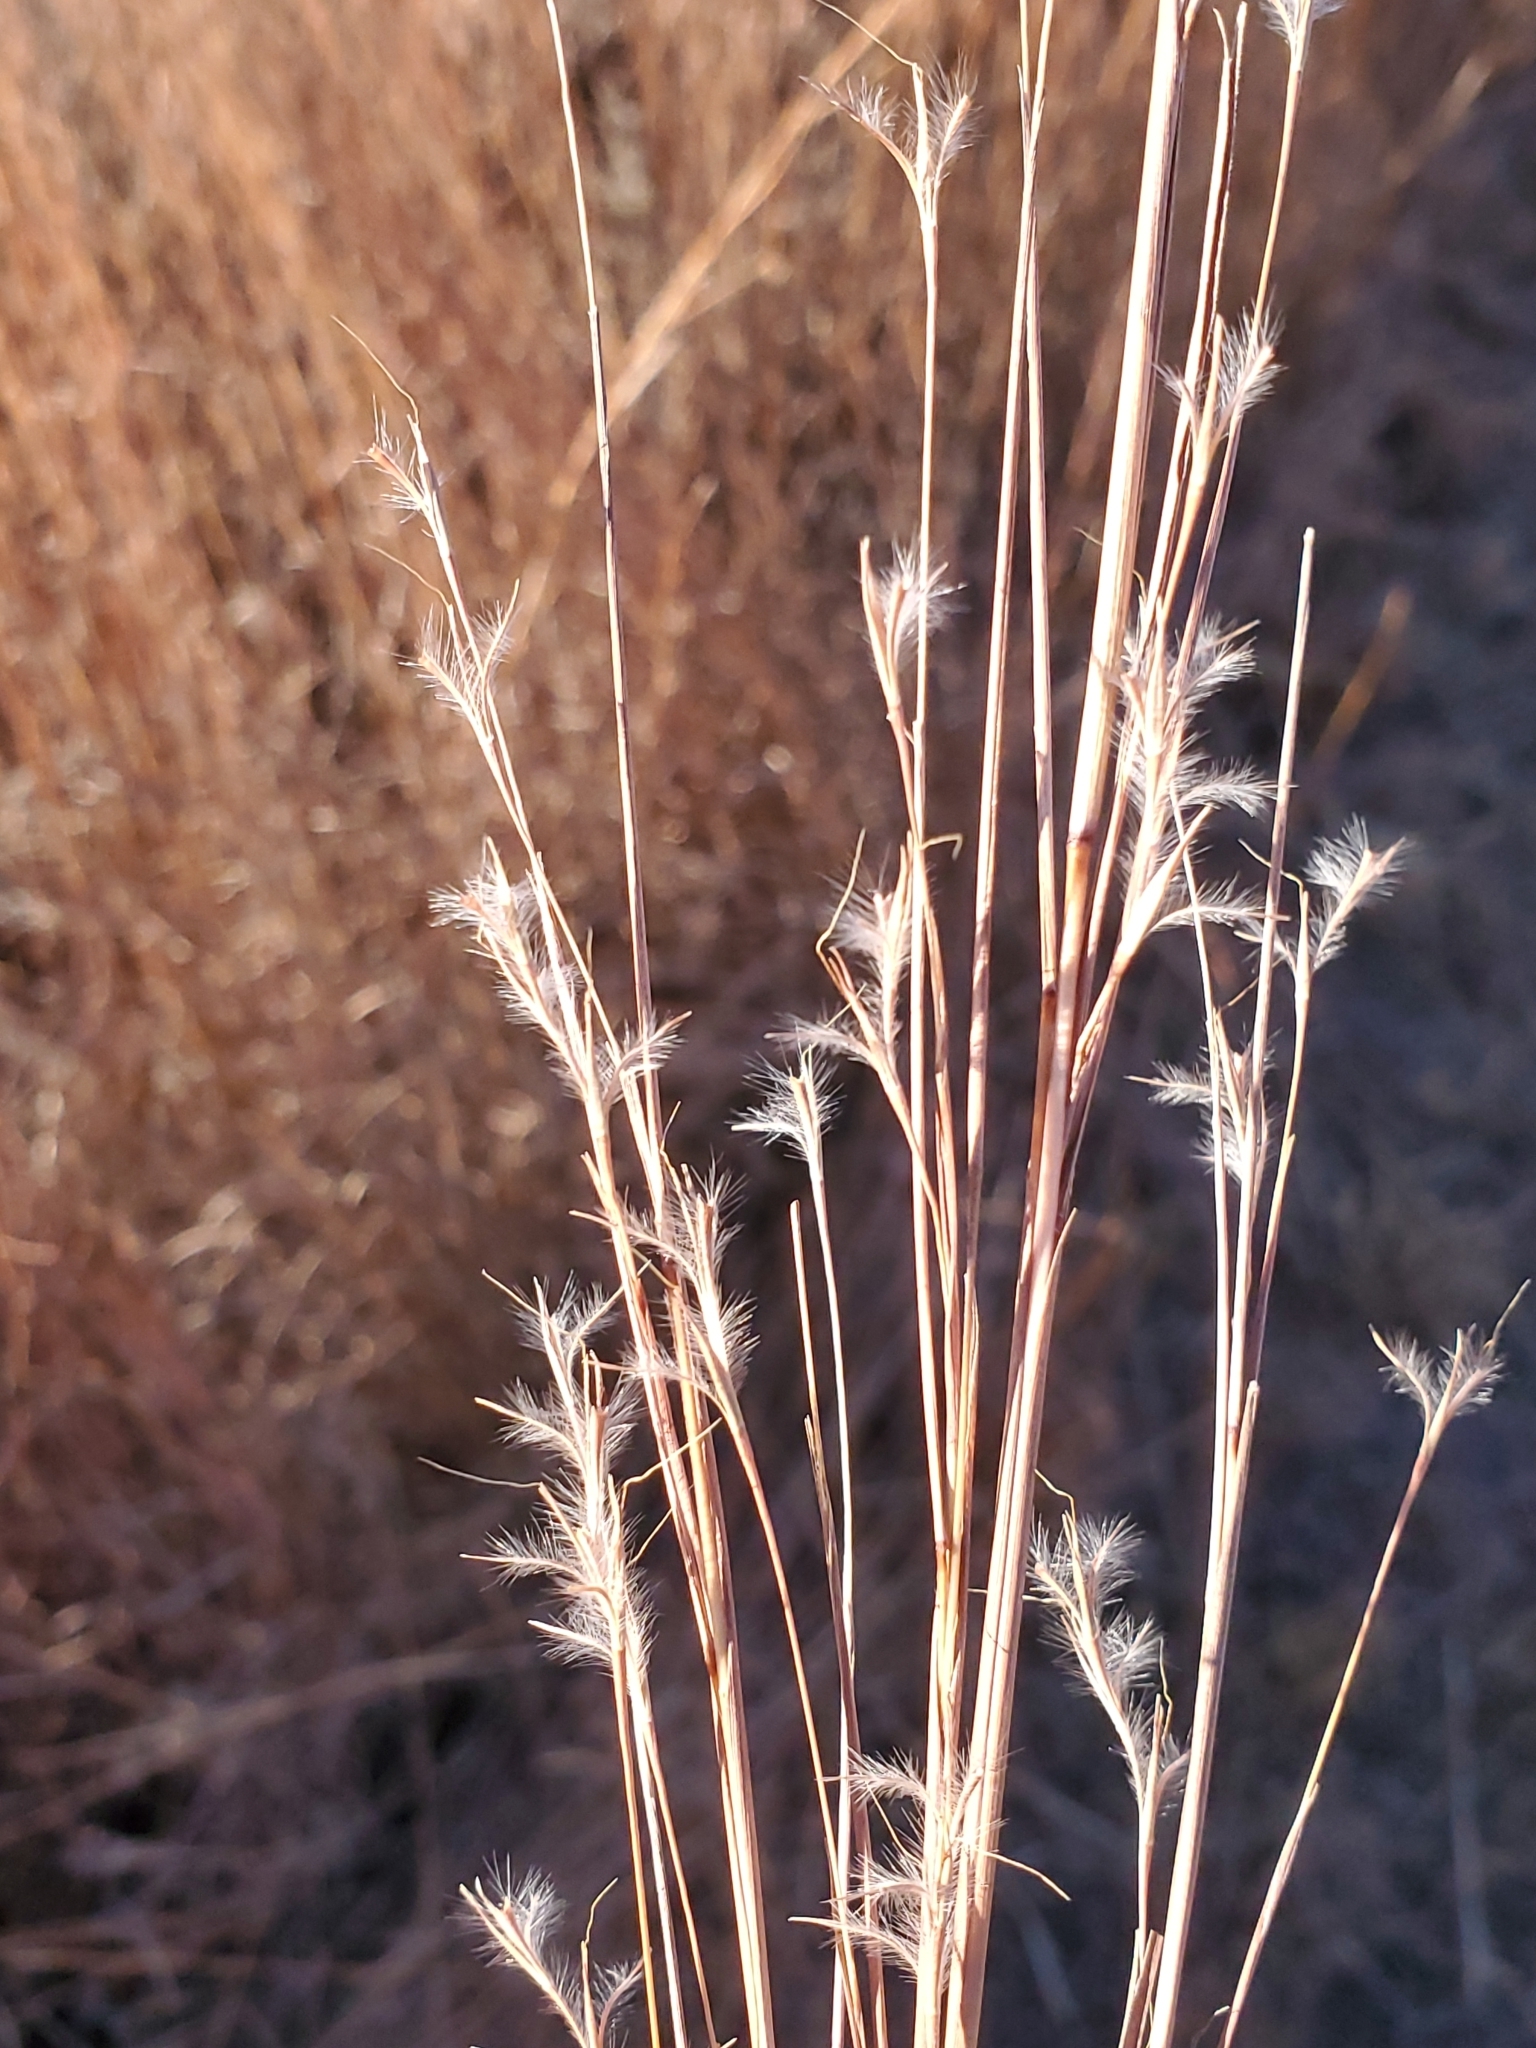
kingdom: Plantae
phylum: Tracheophyta
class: Liliopsida
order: Poales
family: Poaceae
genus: Schizachyrium
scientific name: Schizachyrium scoparium
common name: Little bluestem
